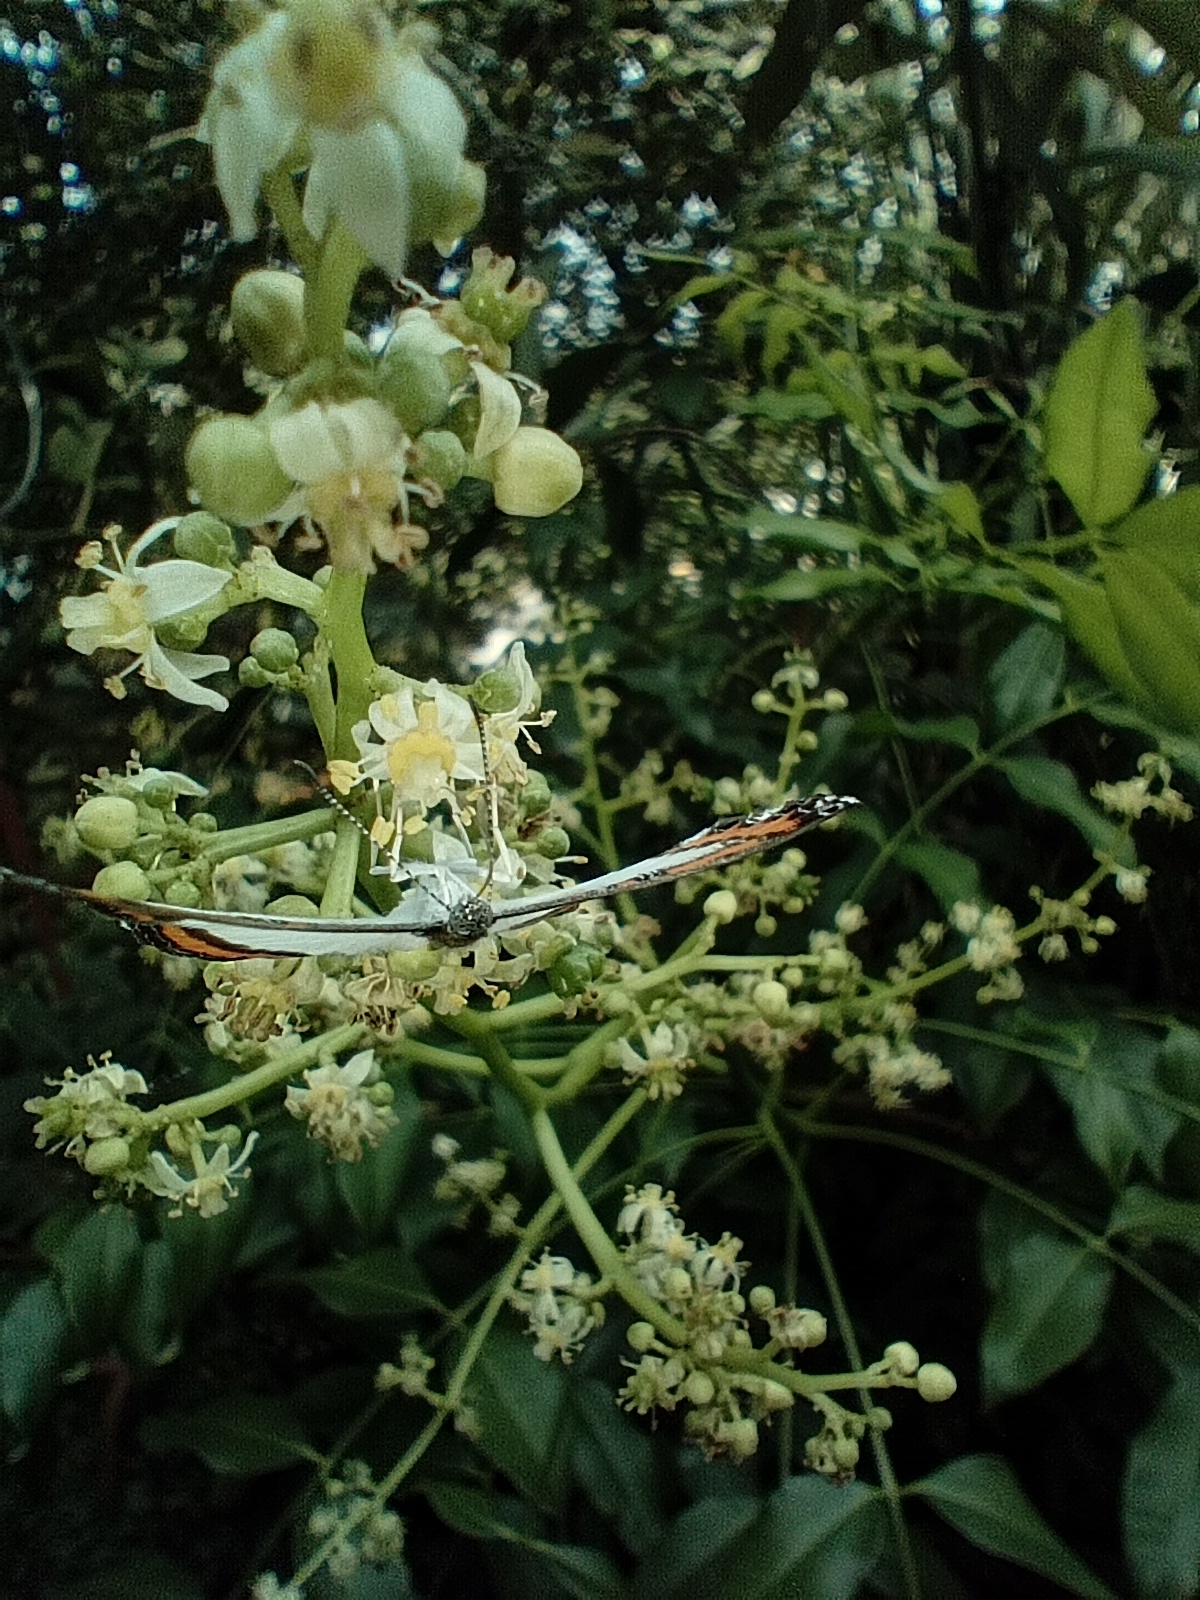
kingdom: Animalia
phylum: Arthropoda
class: Insecta
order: Lepidoptera
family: Riodinidae
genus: Nymula
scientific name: Nymula calyce
